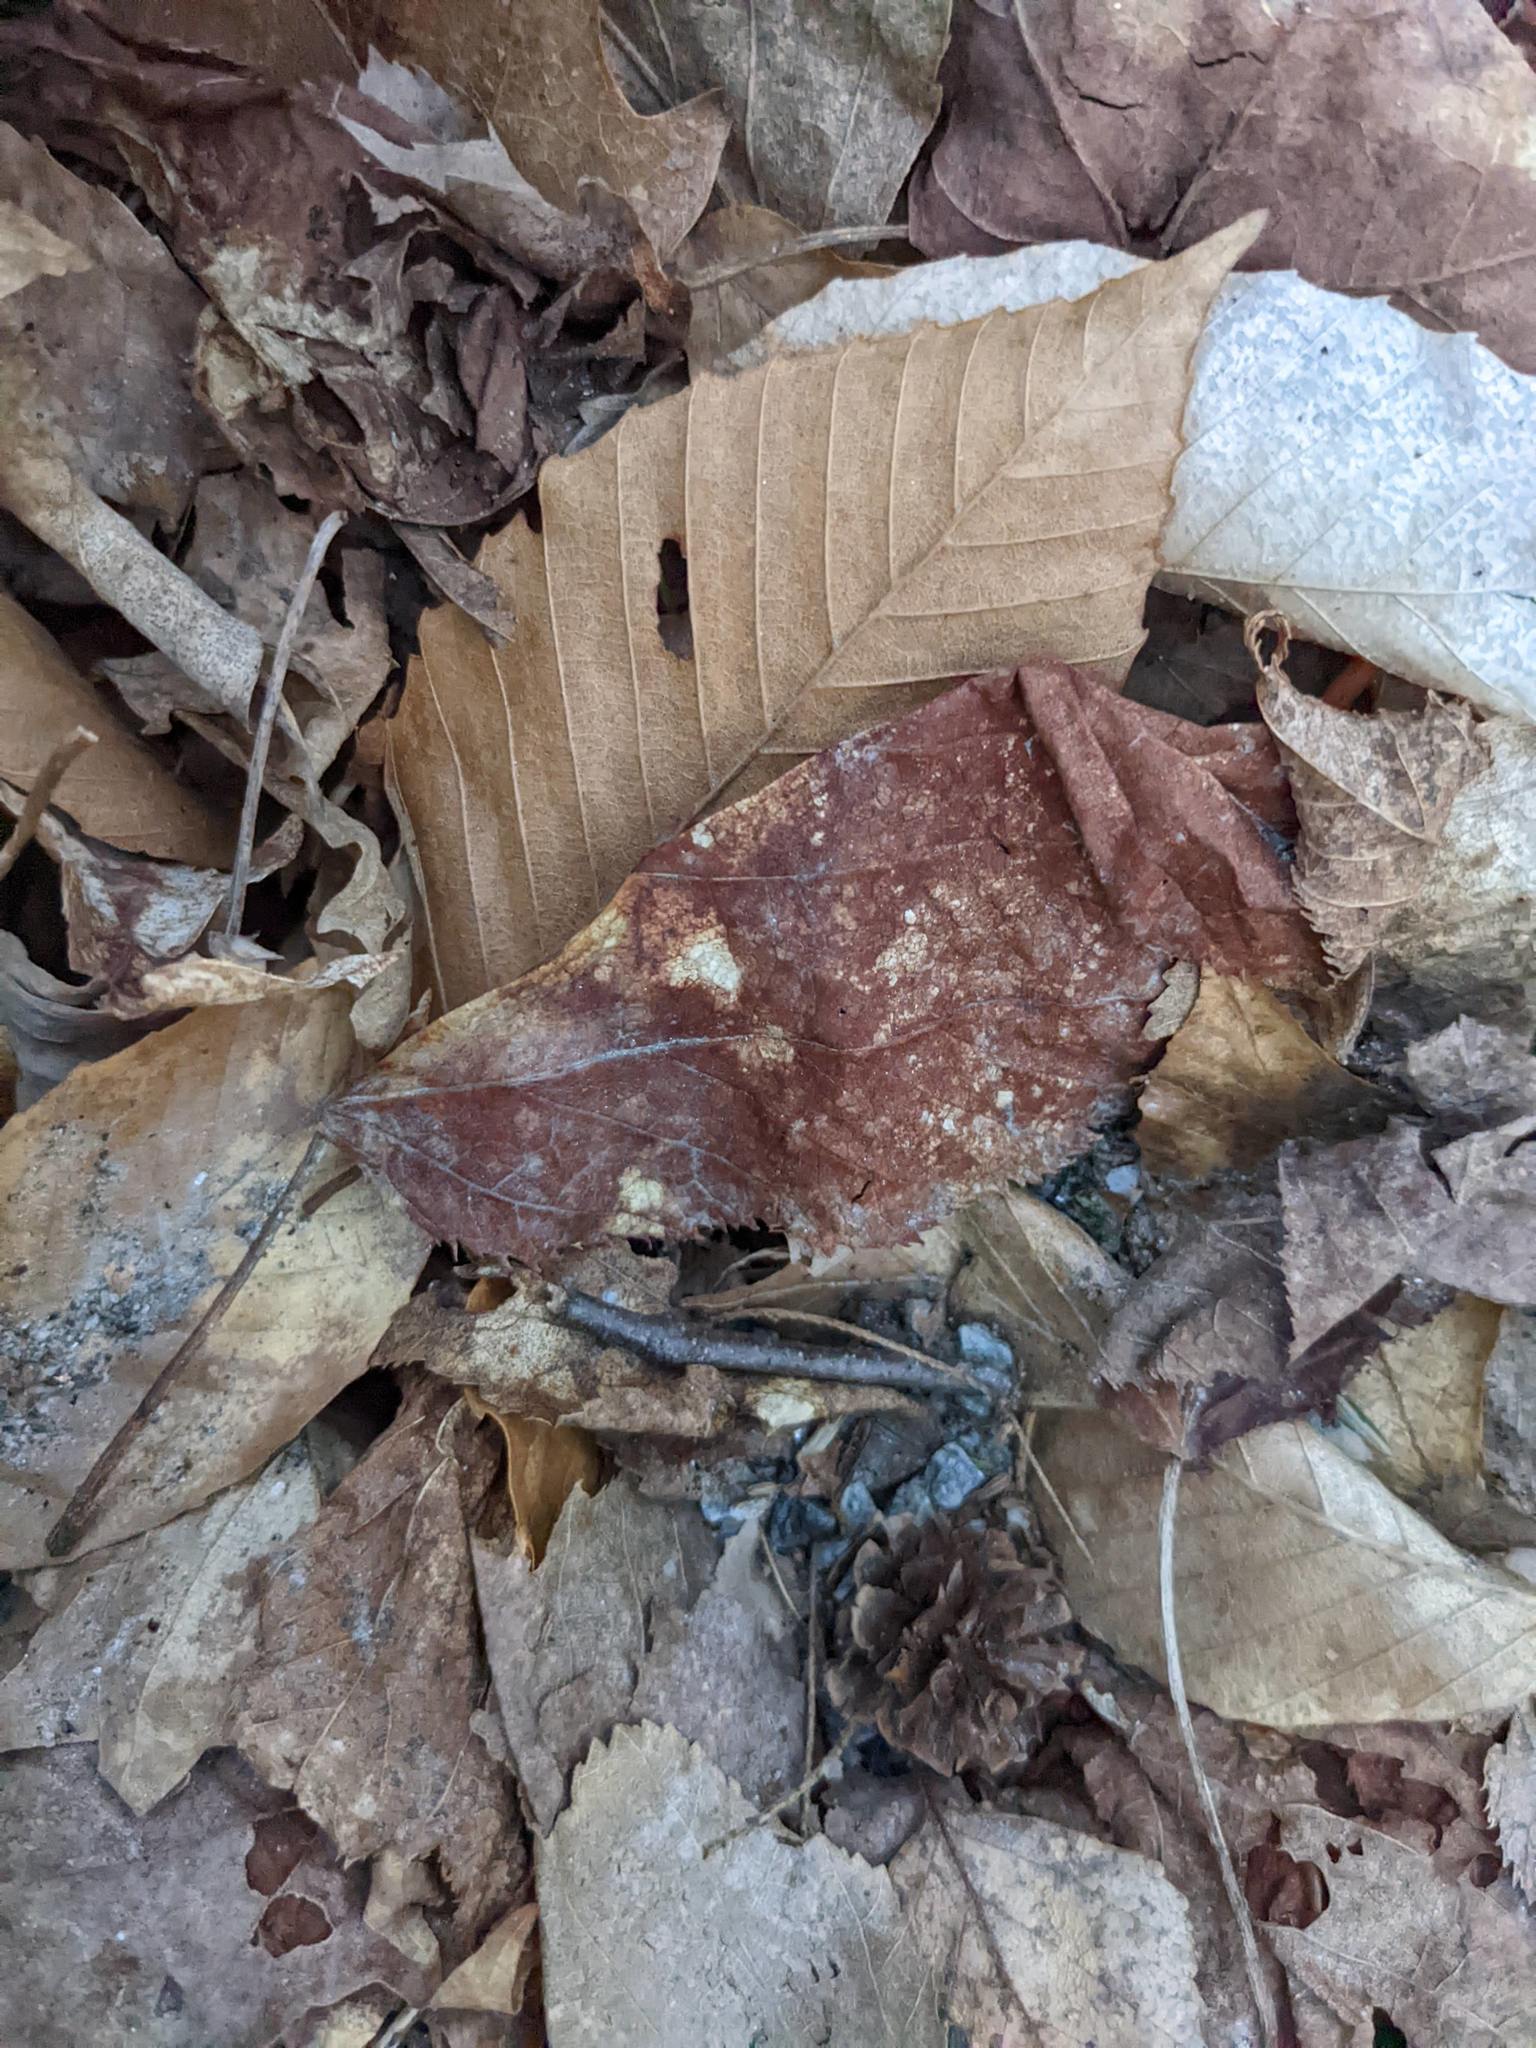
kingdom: Plantae
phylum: Tracheophyta
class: Magnoliopsida
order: Fagales
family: Fagaceae
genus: Fagus
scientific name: Fagus grandifolia
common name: American beech
